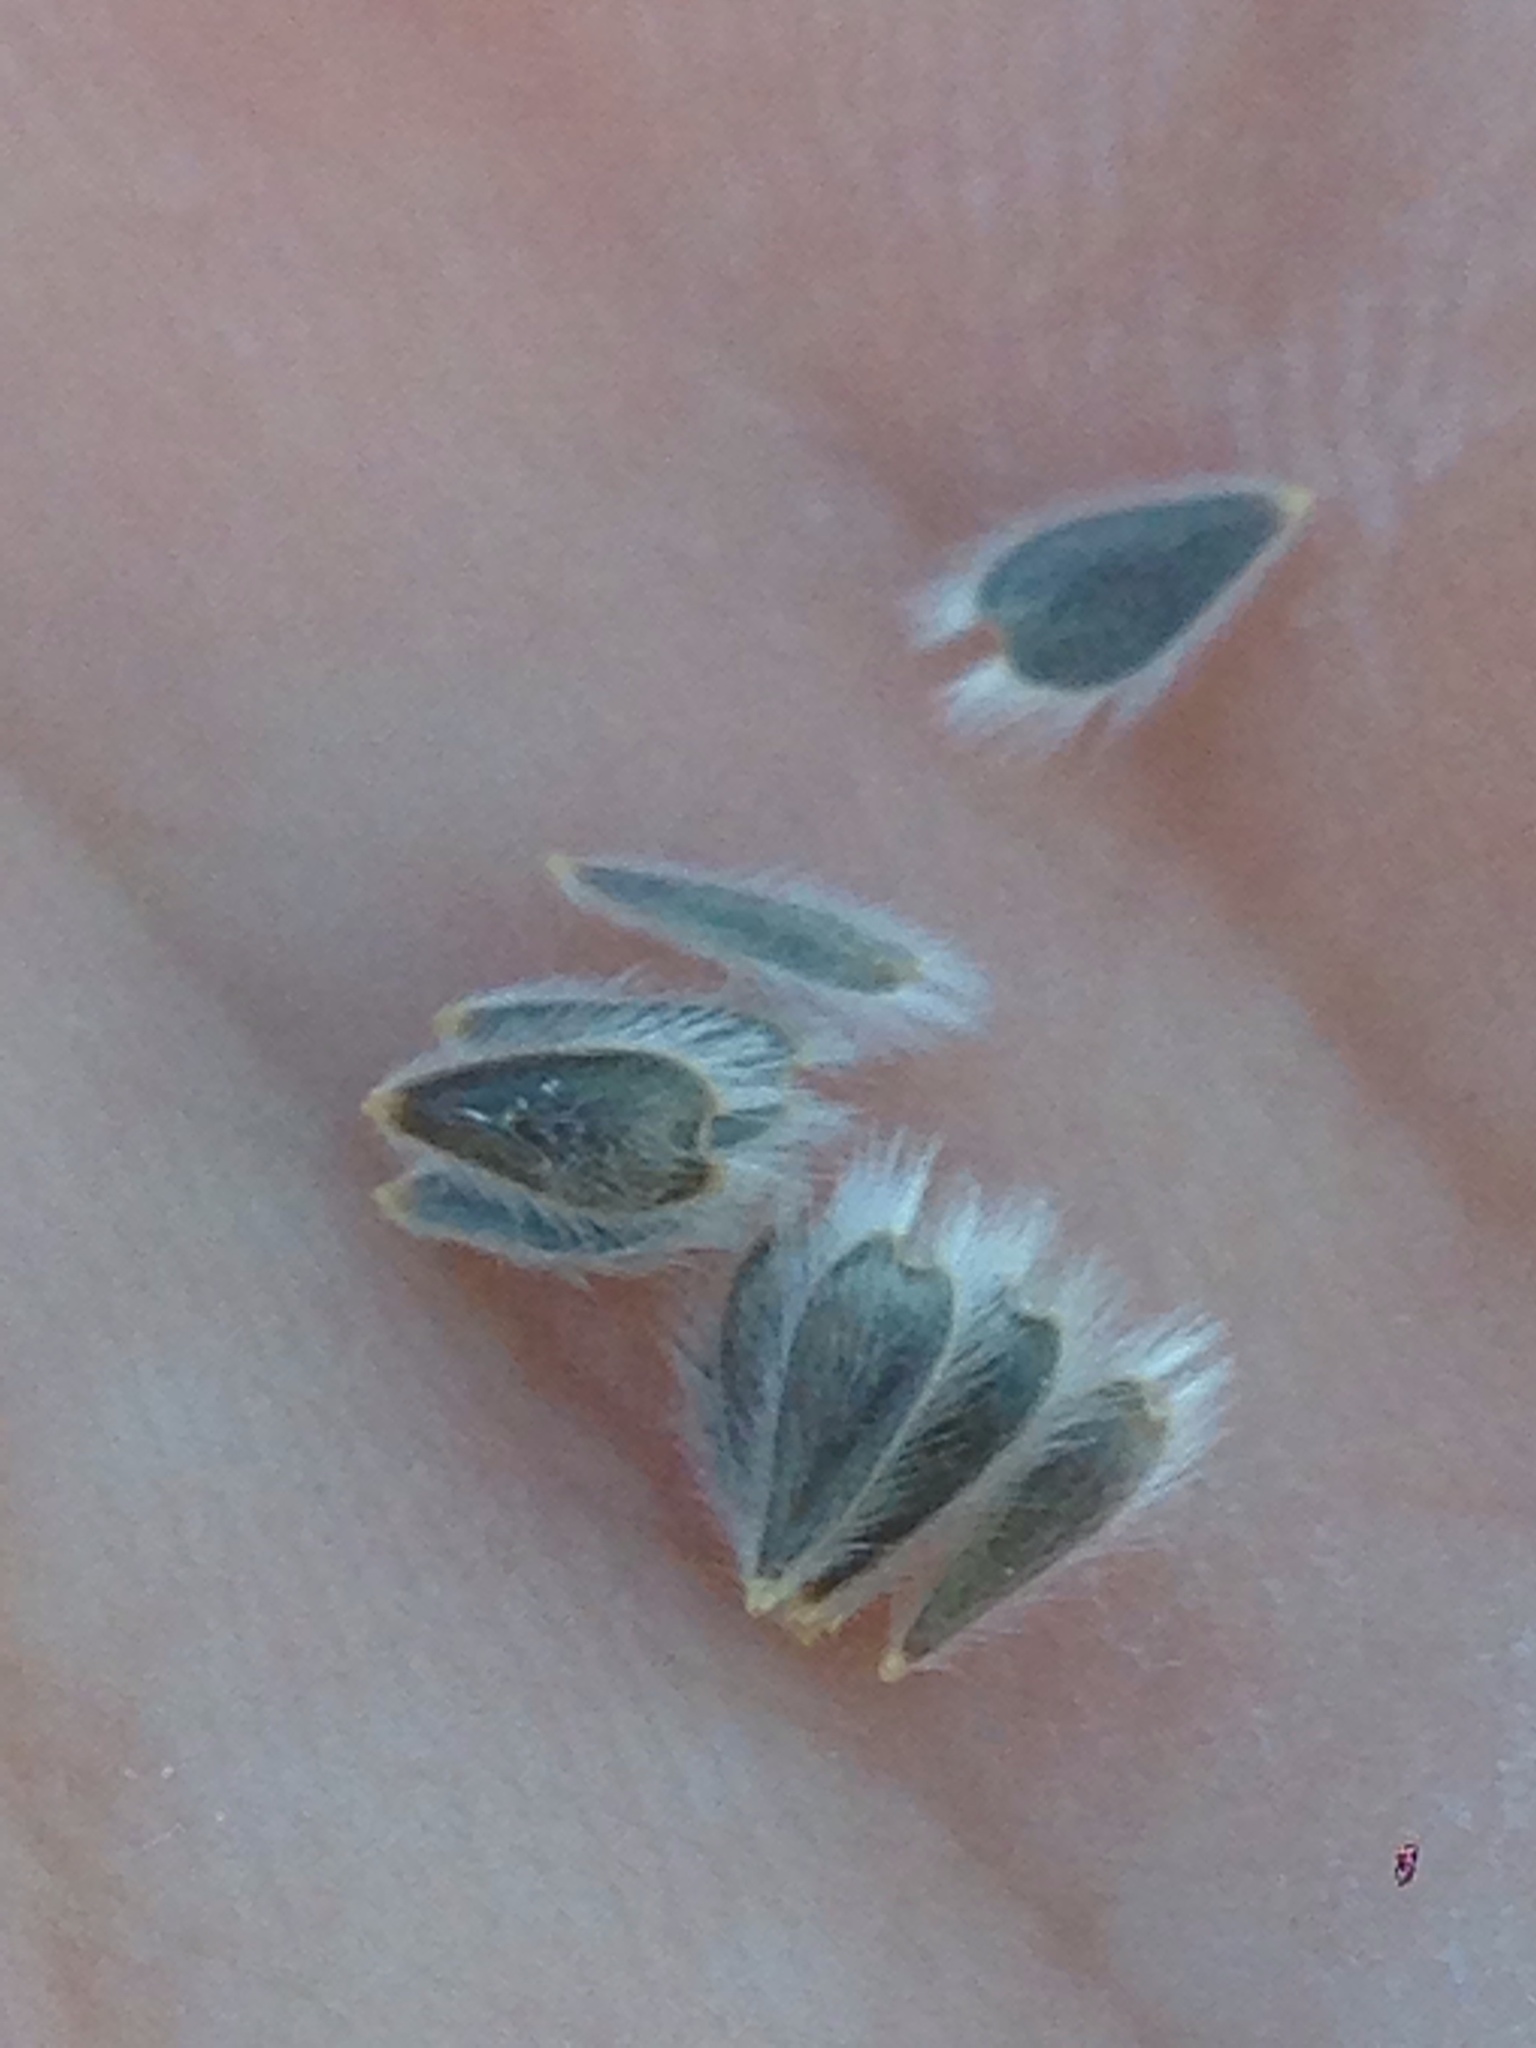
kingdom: Plantae
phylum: Tracheophyta
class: Magnoliopsida
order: Asterales
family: Asteraceae
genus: Encelia
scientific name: Encelia farinosa
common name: Brittlebush
